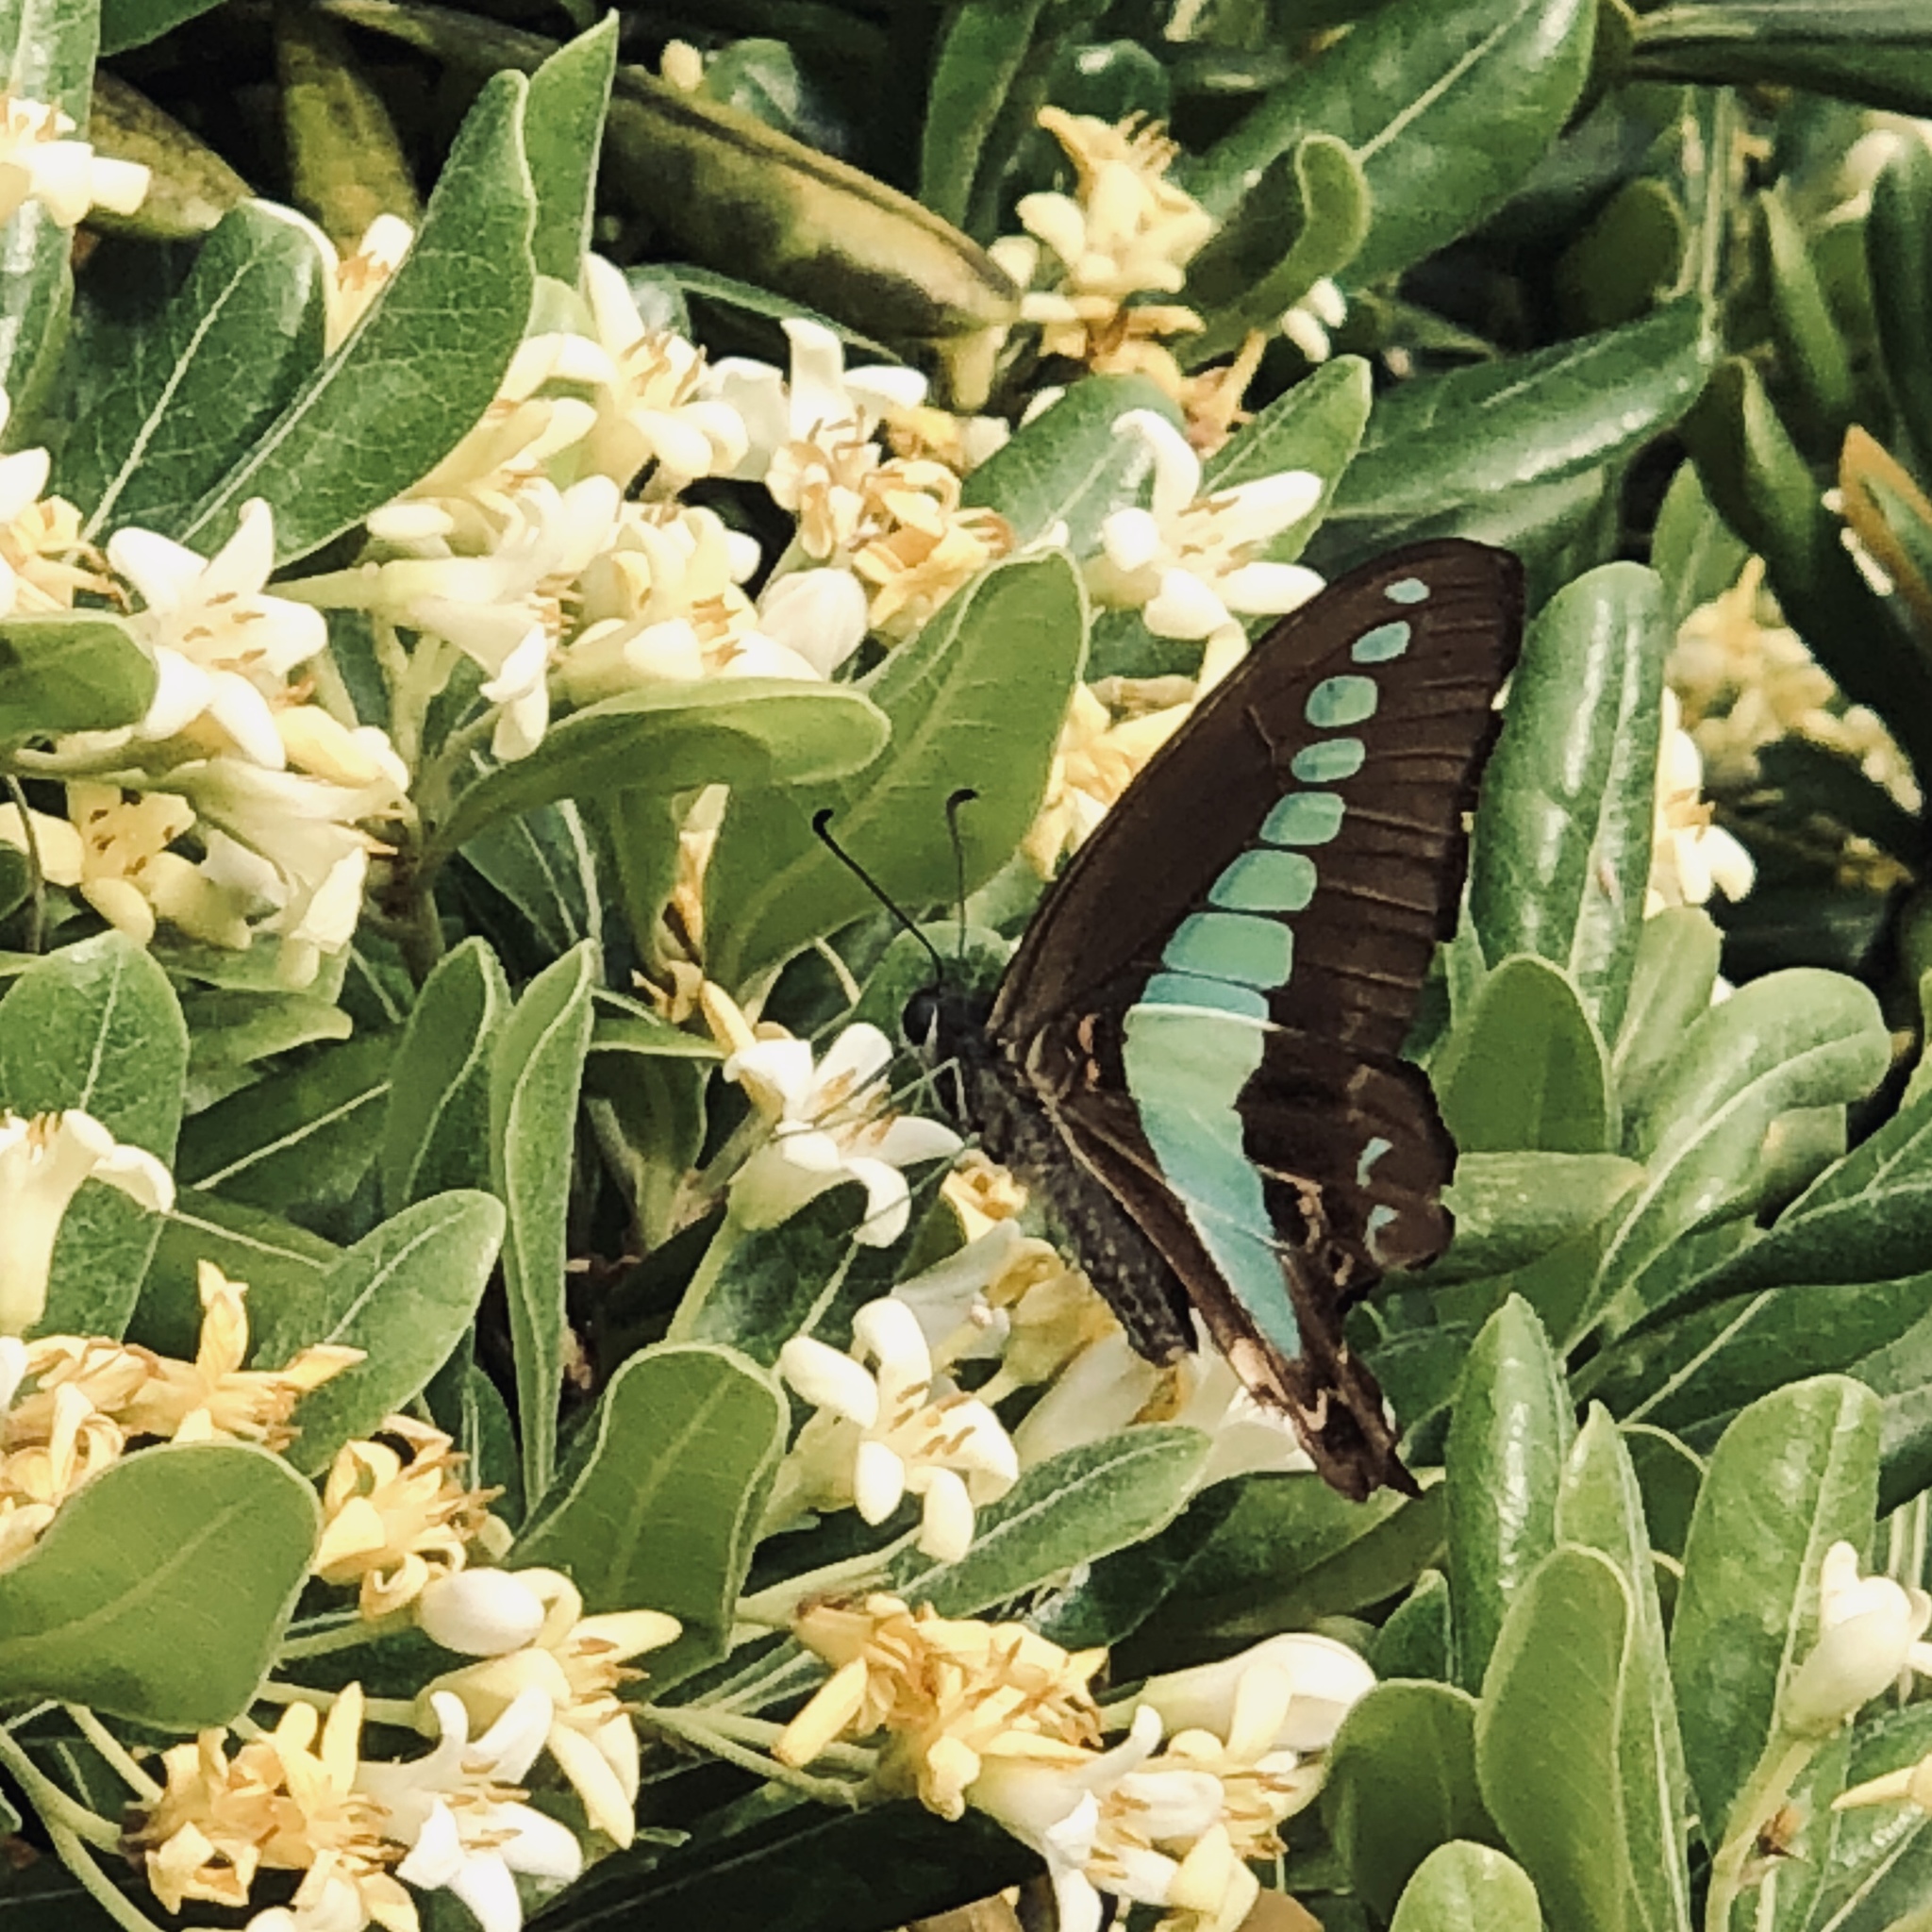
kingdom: Fungi
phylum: Ascomycota
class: Sordariomycetes
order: Microascales
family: Microascaceae
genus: Graphium
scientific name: Graphium sarpedon
